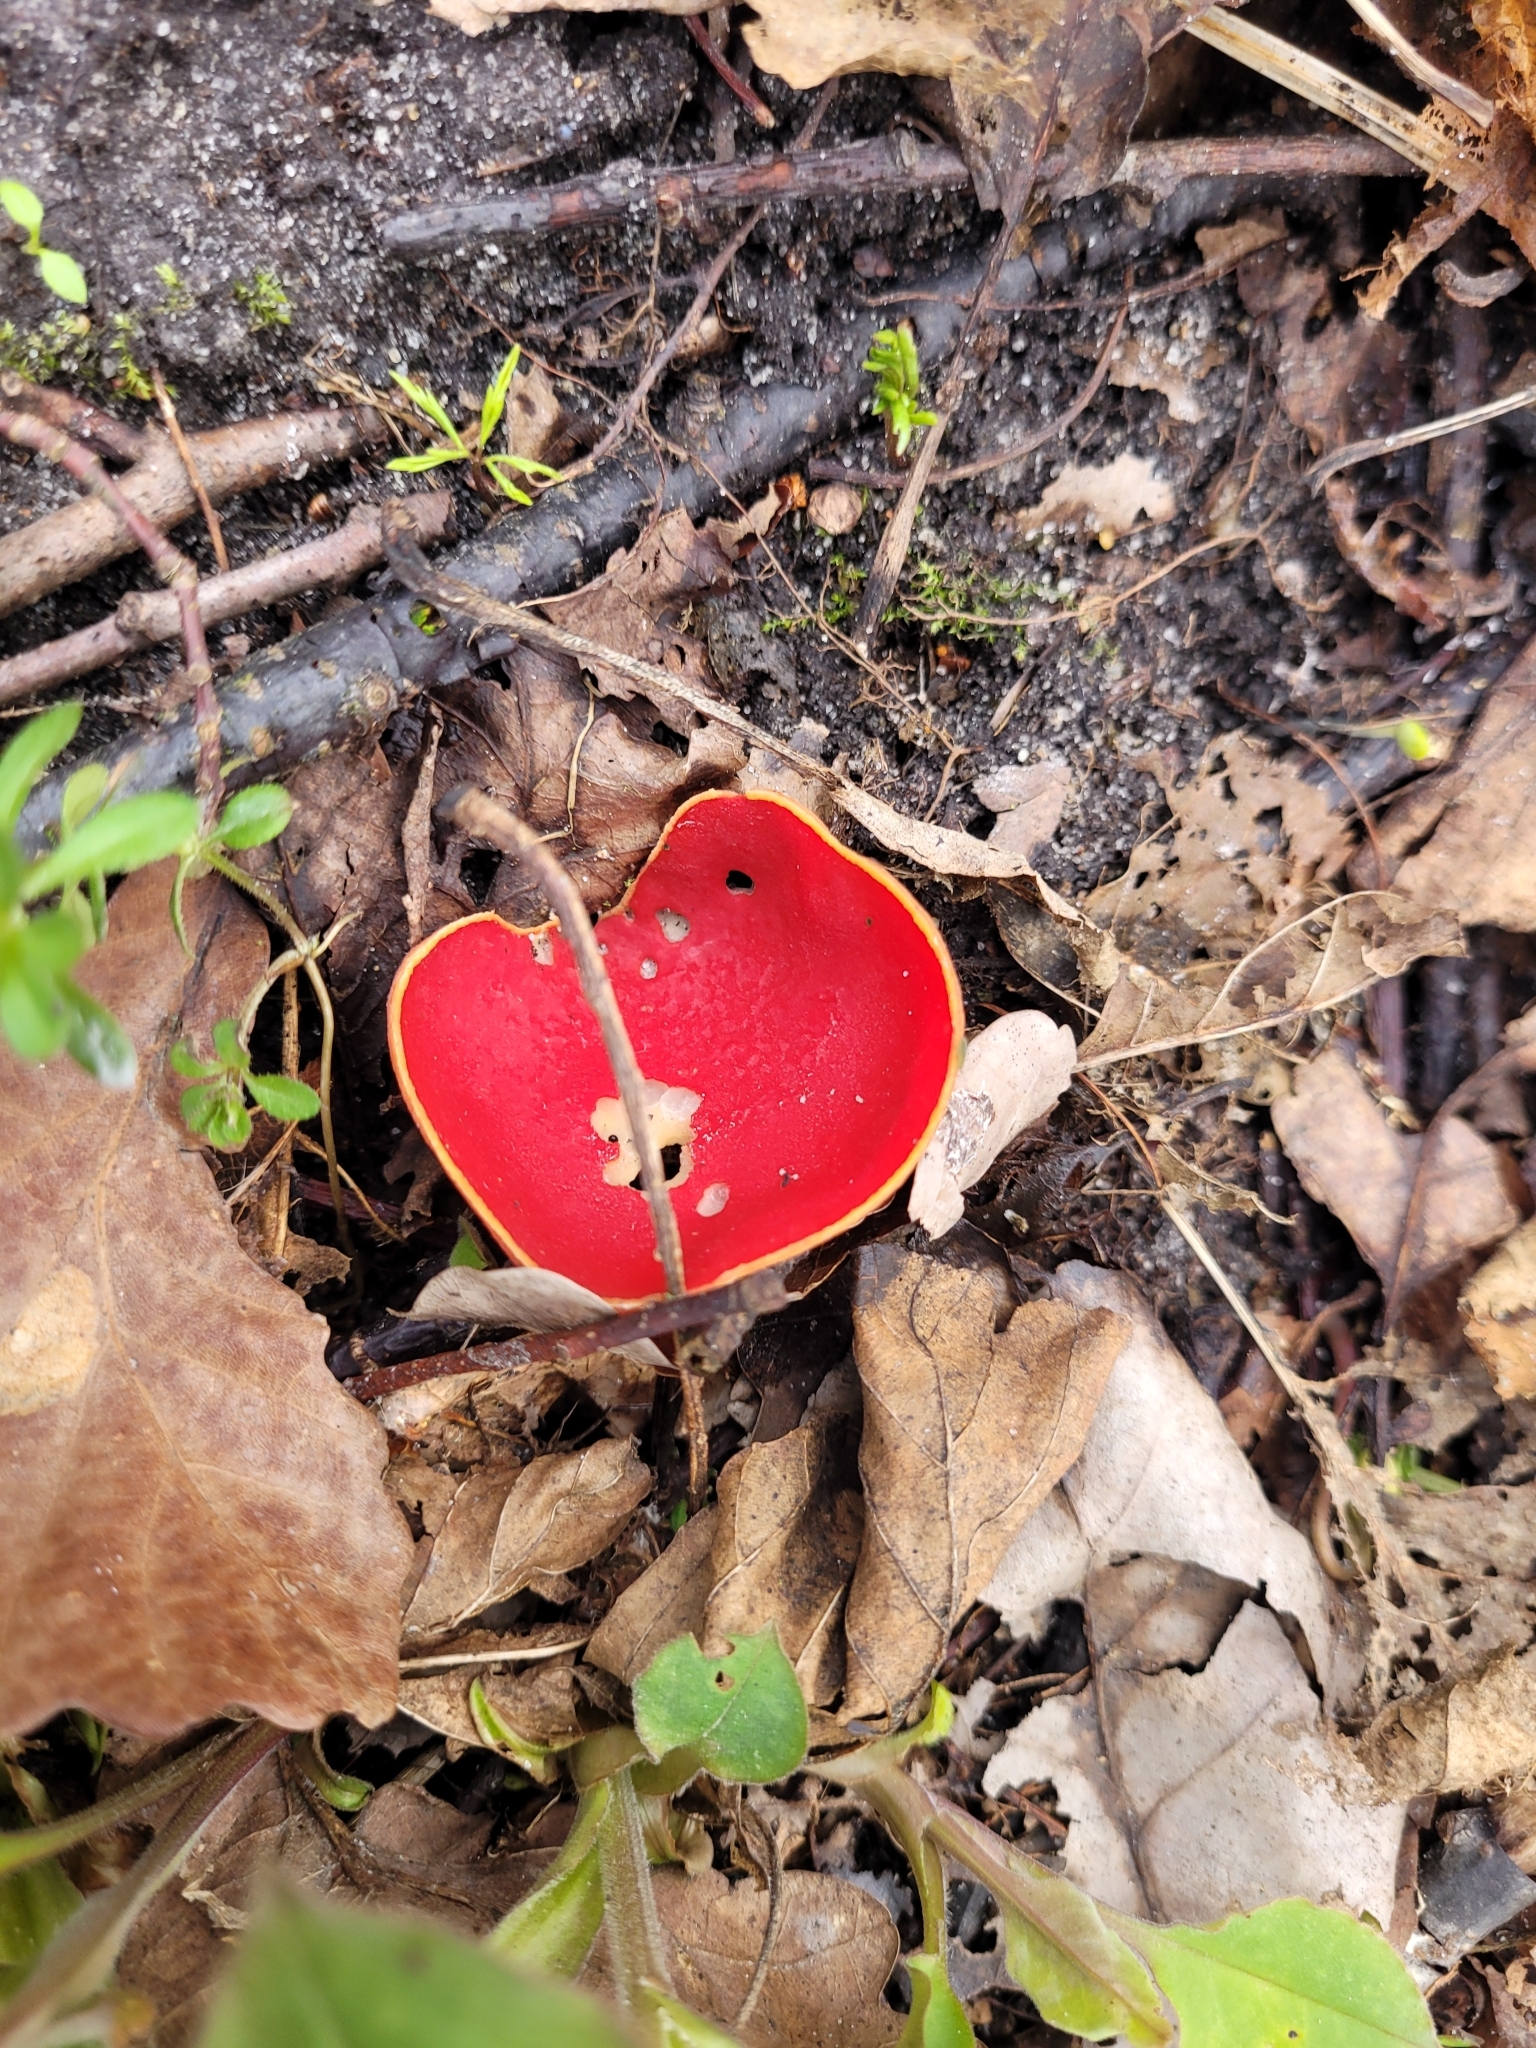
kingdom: Fungi
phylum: Ascomycota
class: Pezizomycetes
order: Pezizales
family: Sarcoscyphaceae
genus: Sarcoscypha
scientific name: Sarcoscypha
